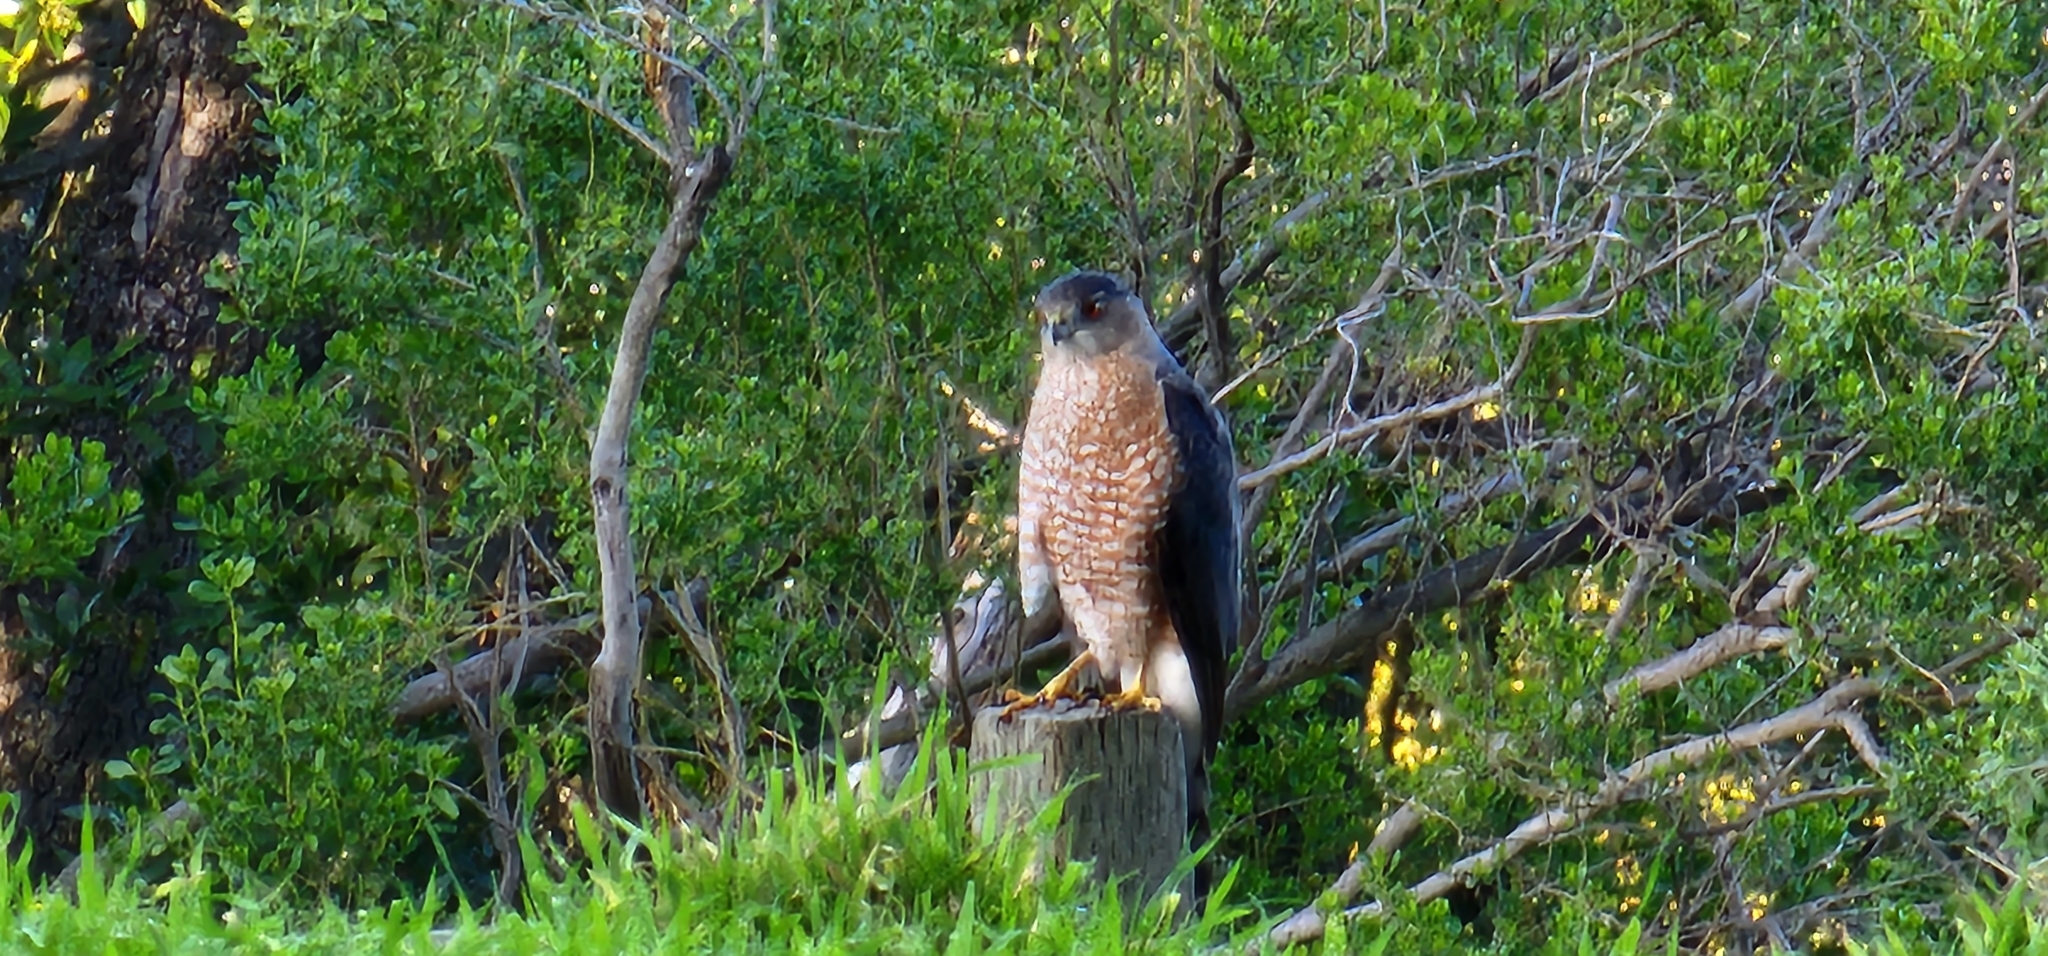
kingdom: Animalia
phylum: Chordata
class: Aves
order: Accipitriformes
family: Accipitridae
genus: Accipiter
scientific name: Accipiter cooperii
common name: Cooper's hawk
